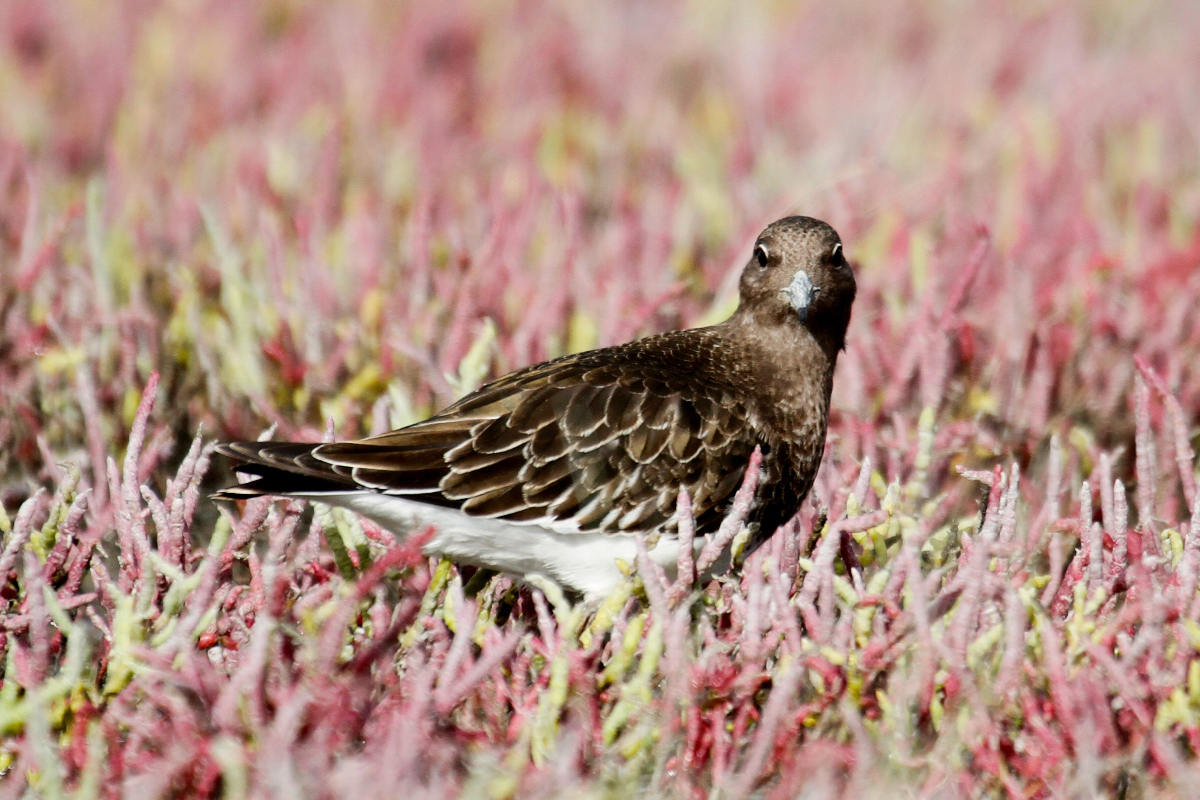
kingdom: Animalia
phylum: Chordata
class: Aves
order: Charadriiformes
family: Scolopacidae
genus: Arenaria
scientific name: Arenaria melanocephala
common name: Black turnstone
